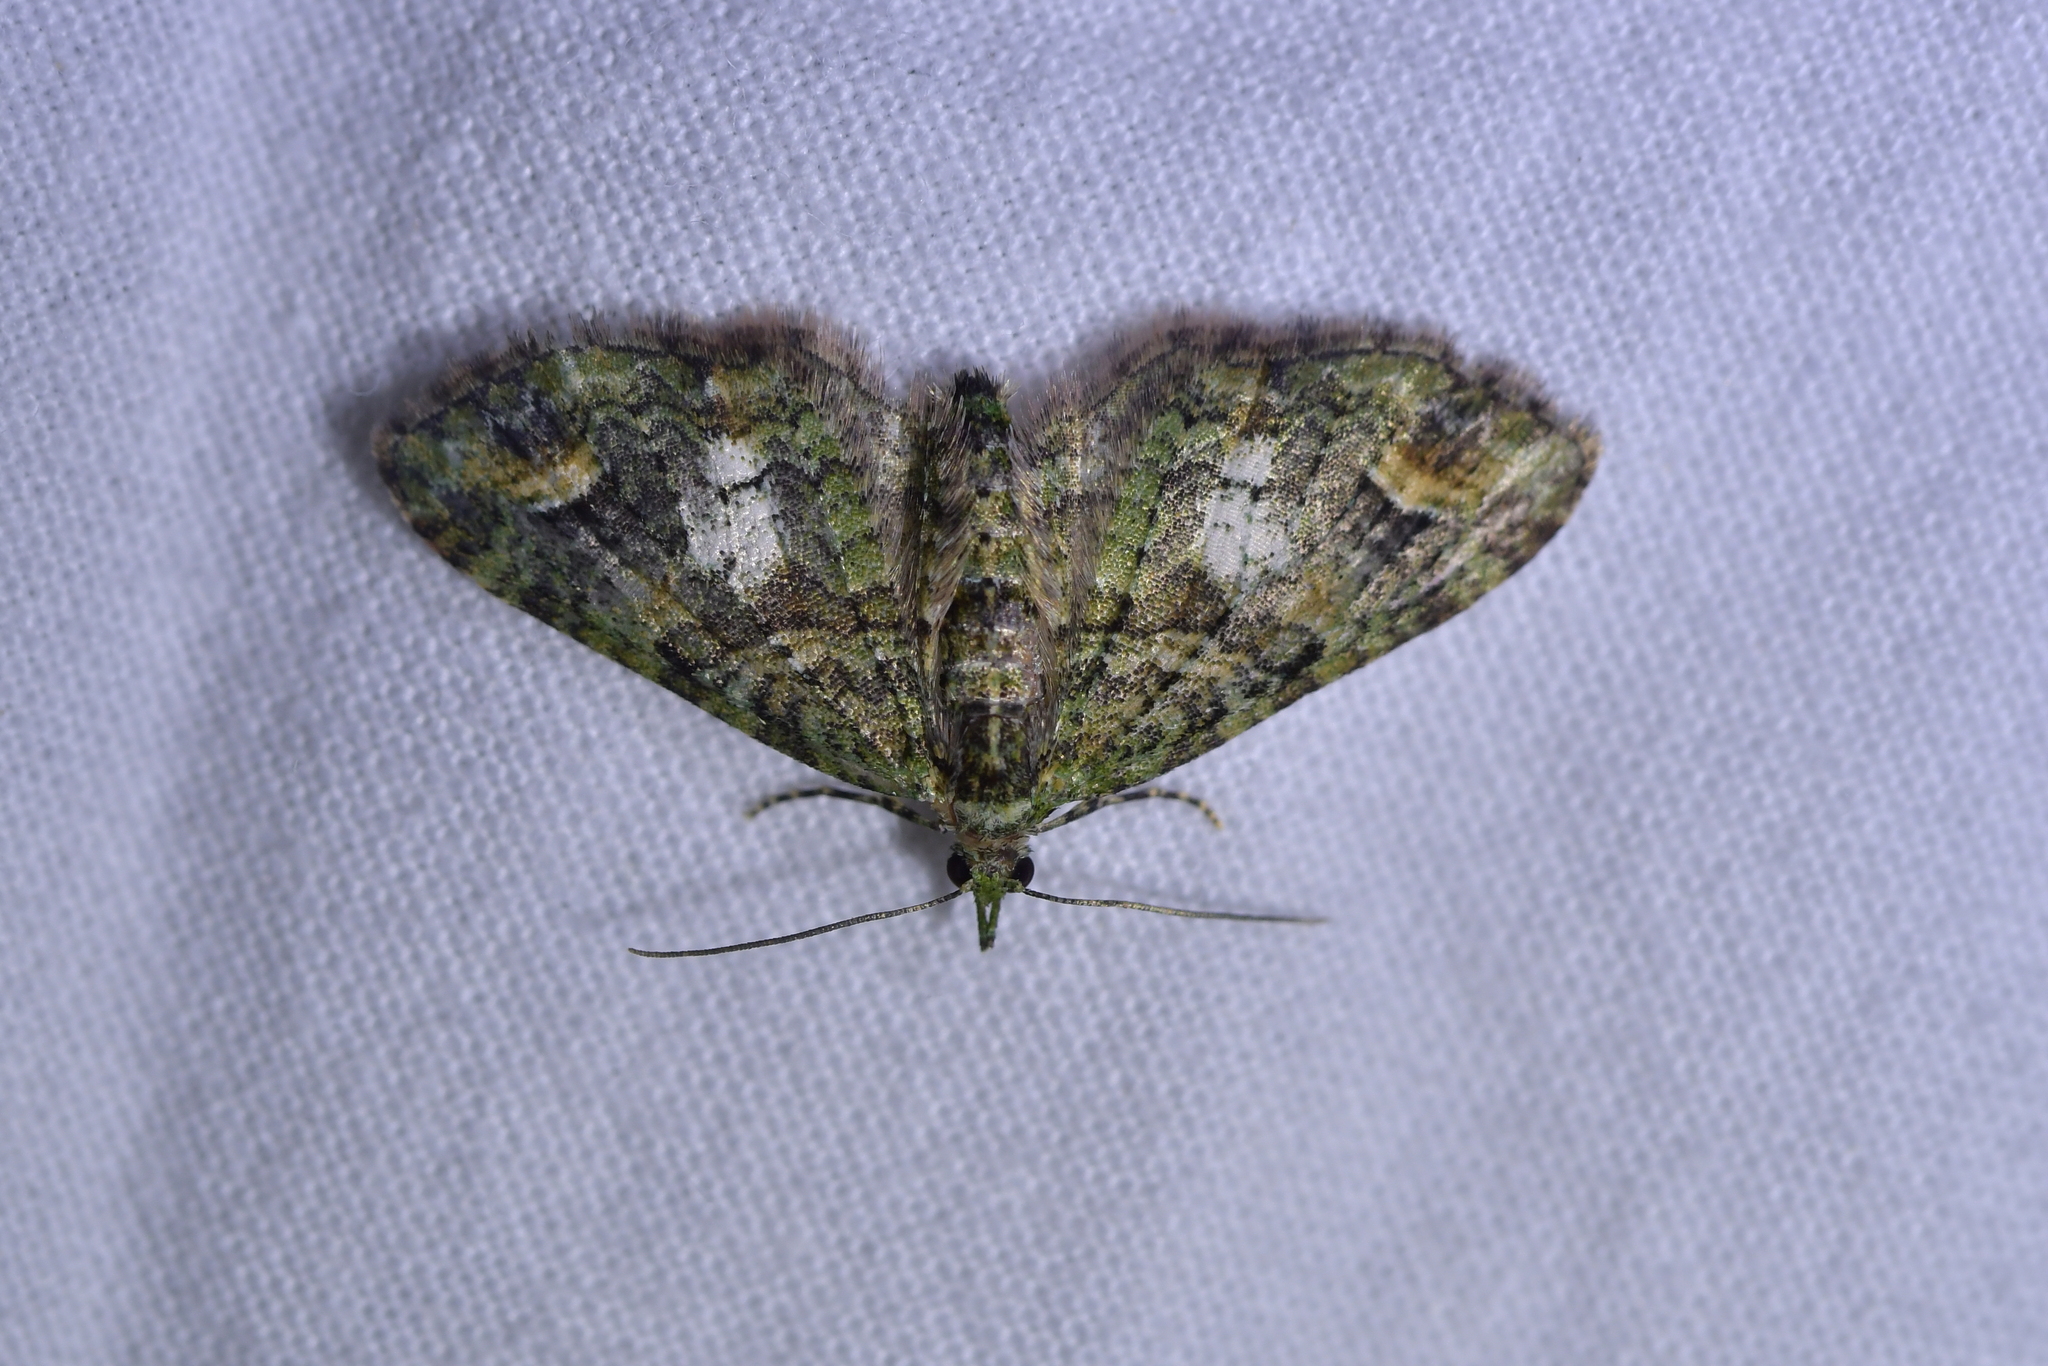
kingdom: Animalia
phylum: Arthropoda
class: Insecta
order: Lepidoptera
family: Geometridae
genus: Idaea
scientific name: Idaea mutanda
